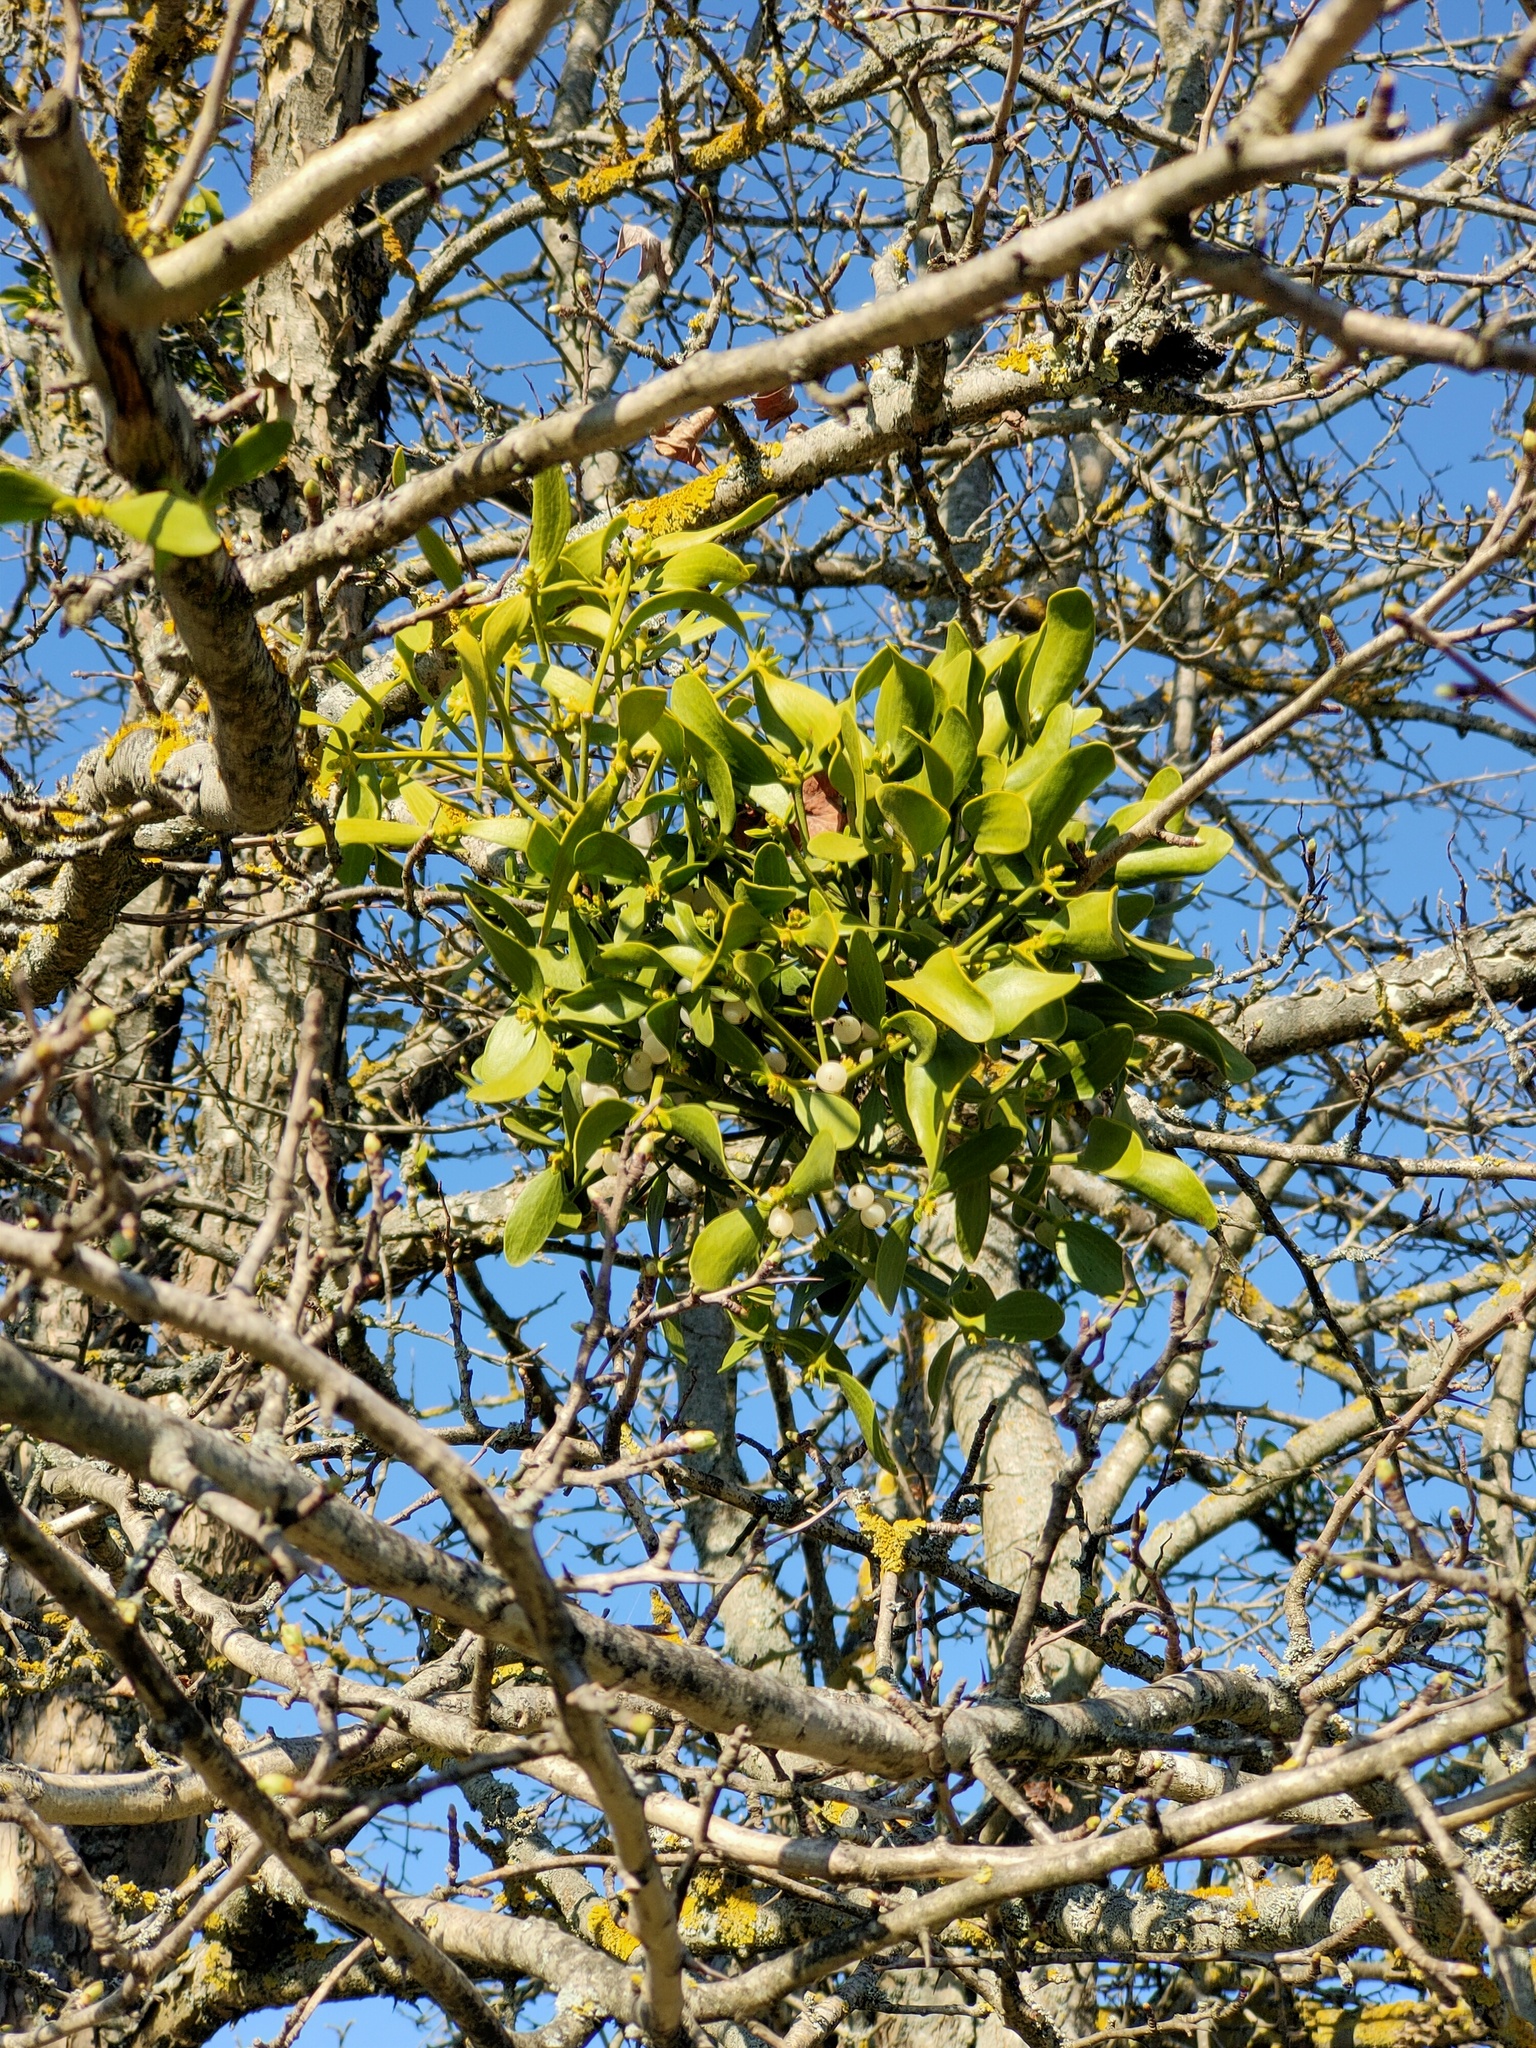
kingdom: Plantae
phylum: Tracheophyta
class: Magnoliopsida
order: Santalales
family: Viscaceae
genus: Viscum
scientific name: Viscum album
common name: Mistletoe
